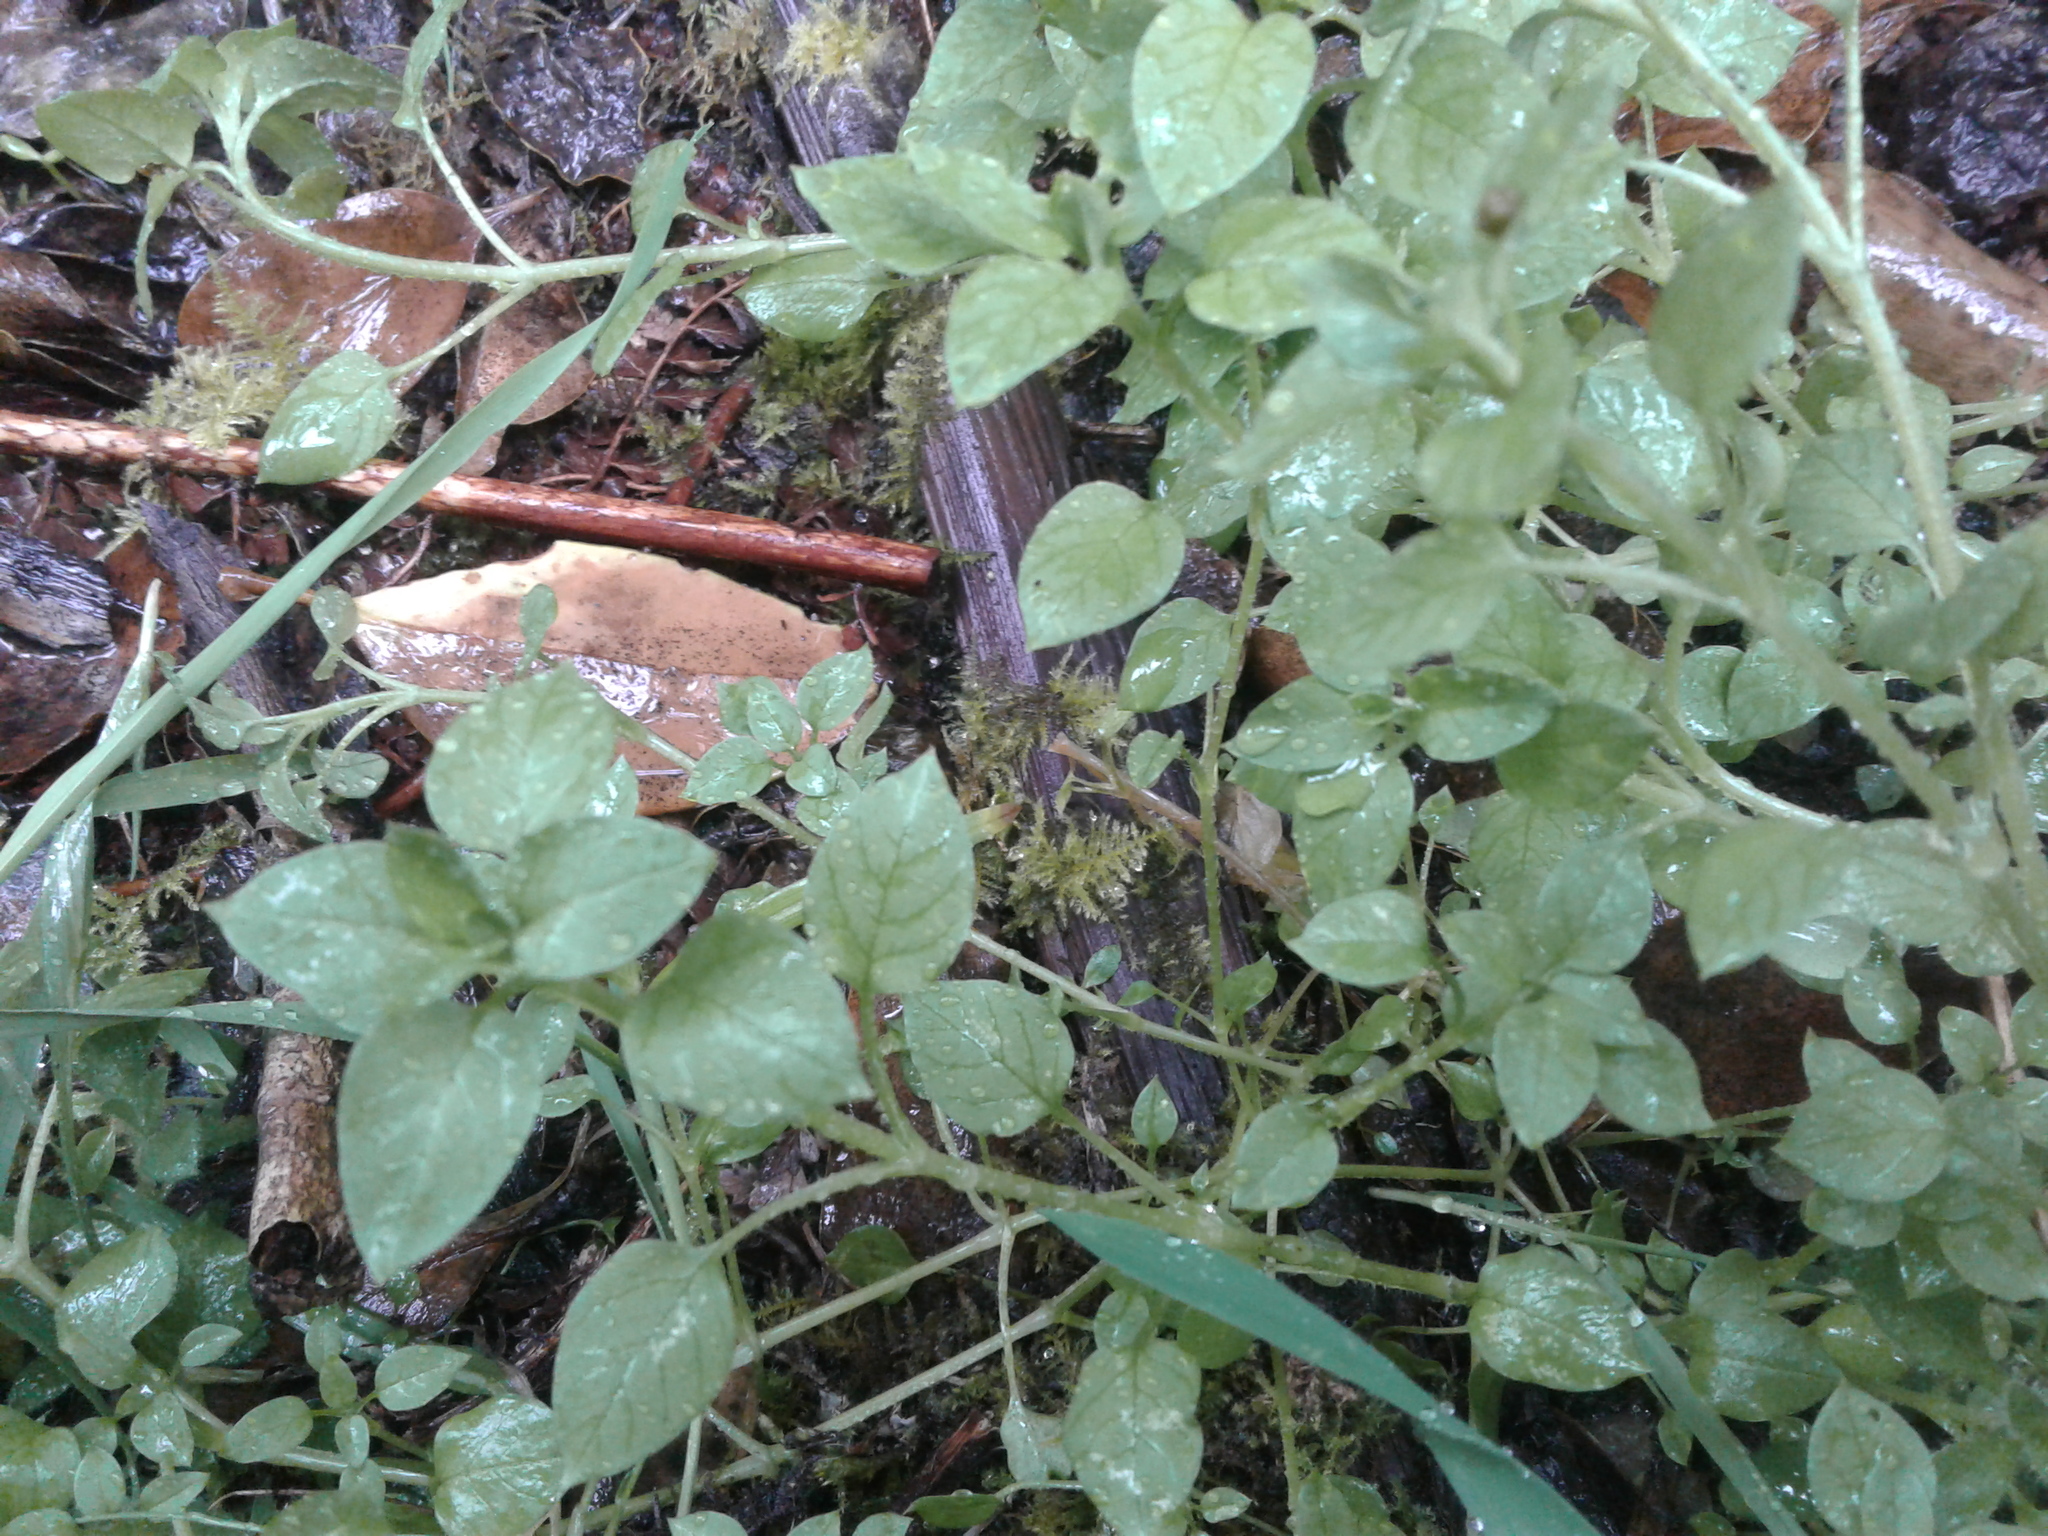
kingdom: Plantae
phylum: Tracheophyta
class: Magnoliopsida
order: Caryophyllales
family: Caryophyllaceae
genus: Stellaria
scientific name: Stellaria media
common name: Common chickweed
